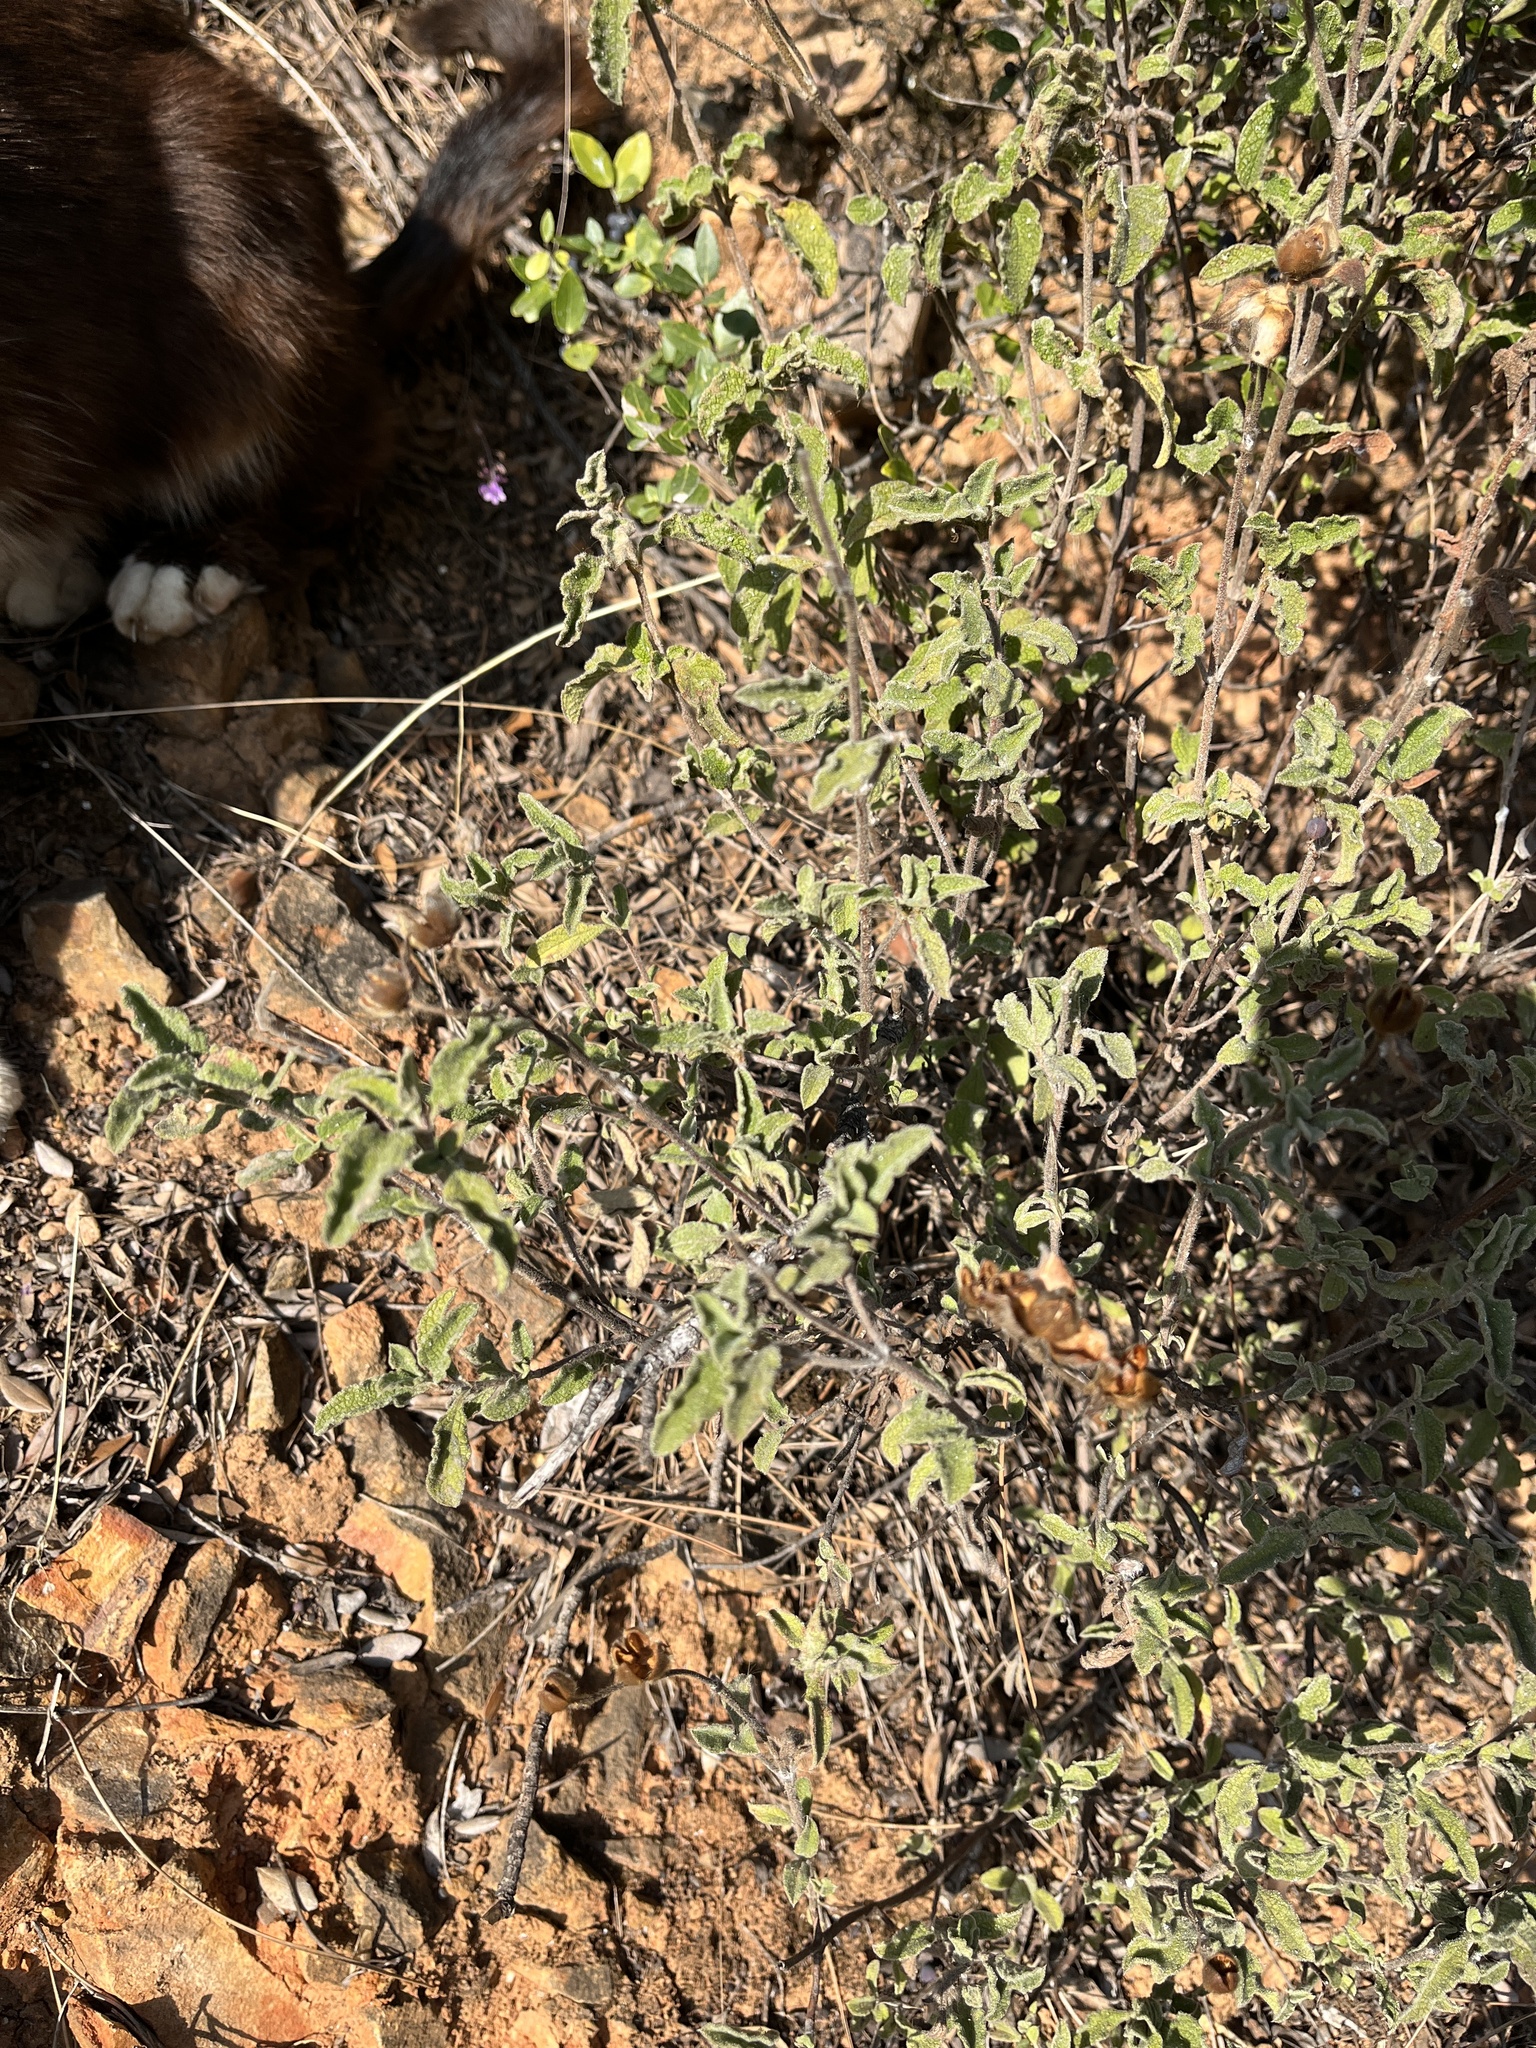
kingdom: Plantae
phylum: Tracheophyta
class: Magnoliopsida
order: Malvales
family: Cistaceae
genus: Cistus
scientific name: Cistus creticus
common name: Cretan rockrose
